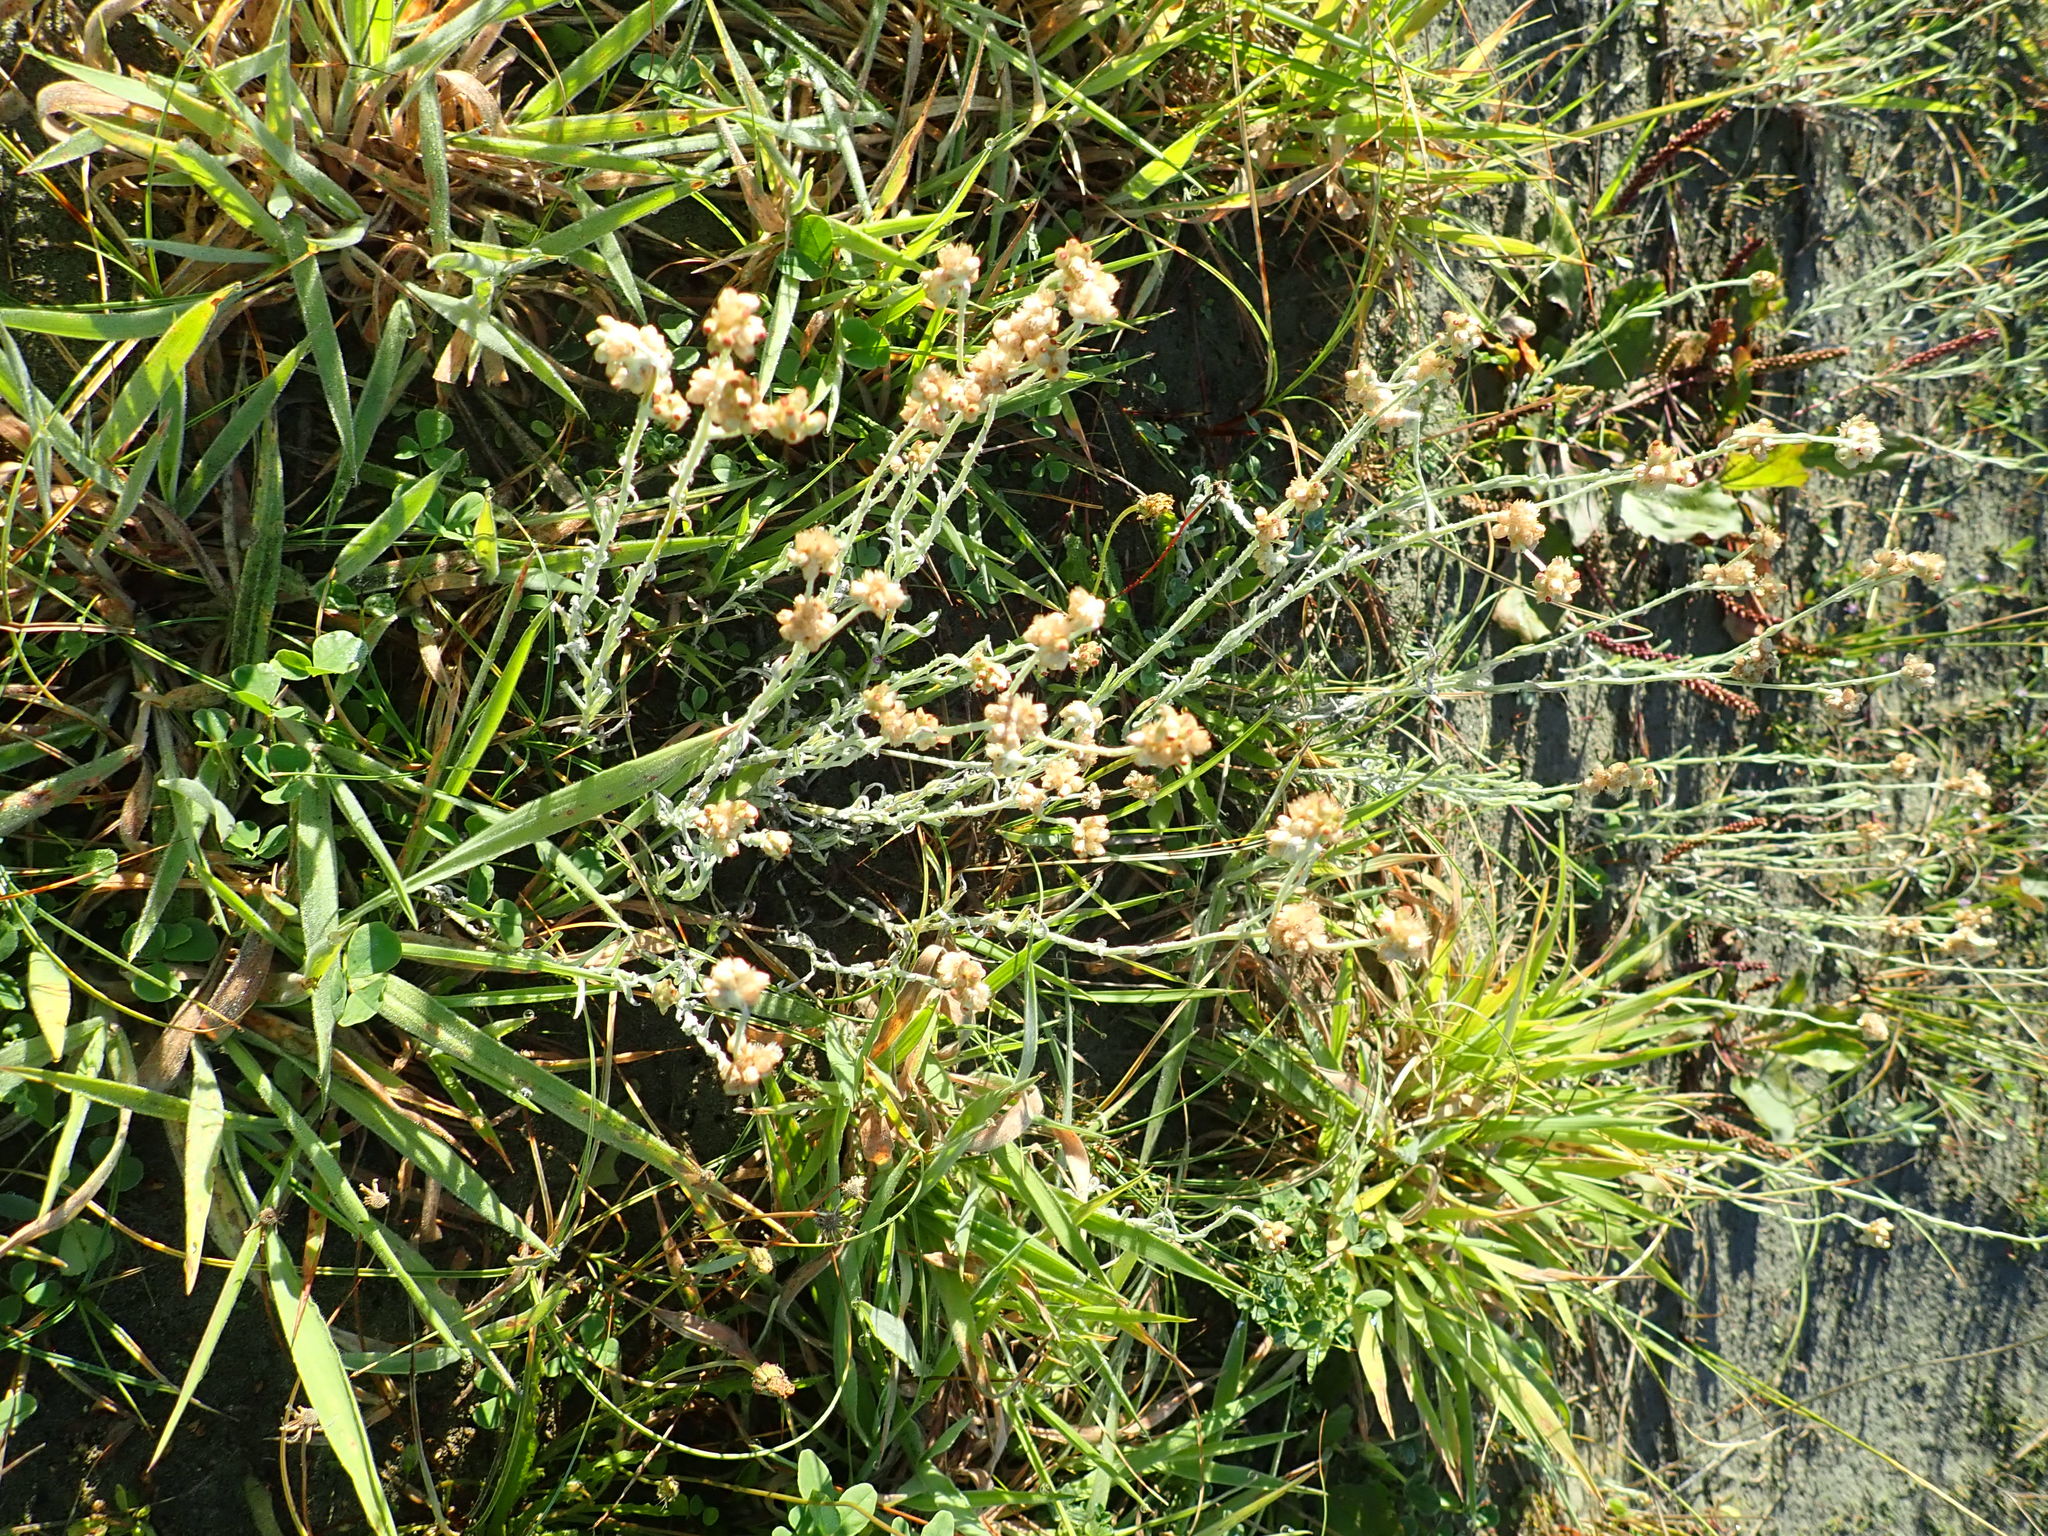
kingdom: Plantae
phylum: Tracheophyta
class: Magnoliopsida
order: Asterales
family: Asteraceae
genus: Helichrysum
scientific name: Helichrysum luteoalbum
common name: Daisy
